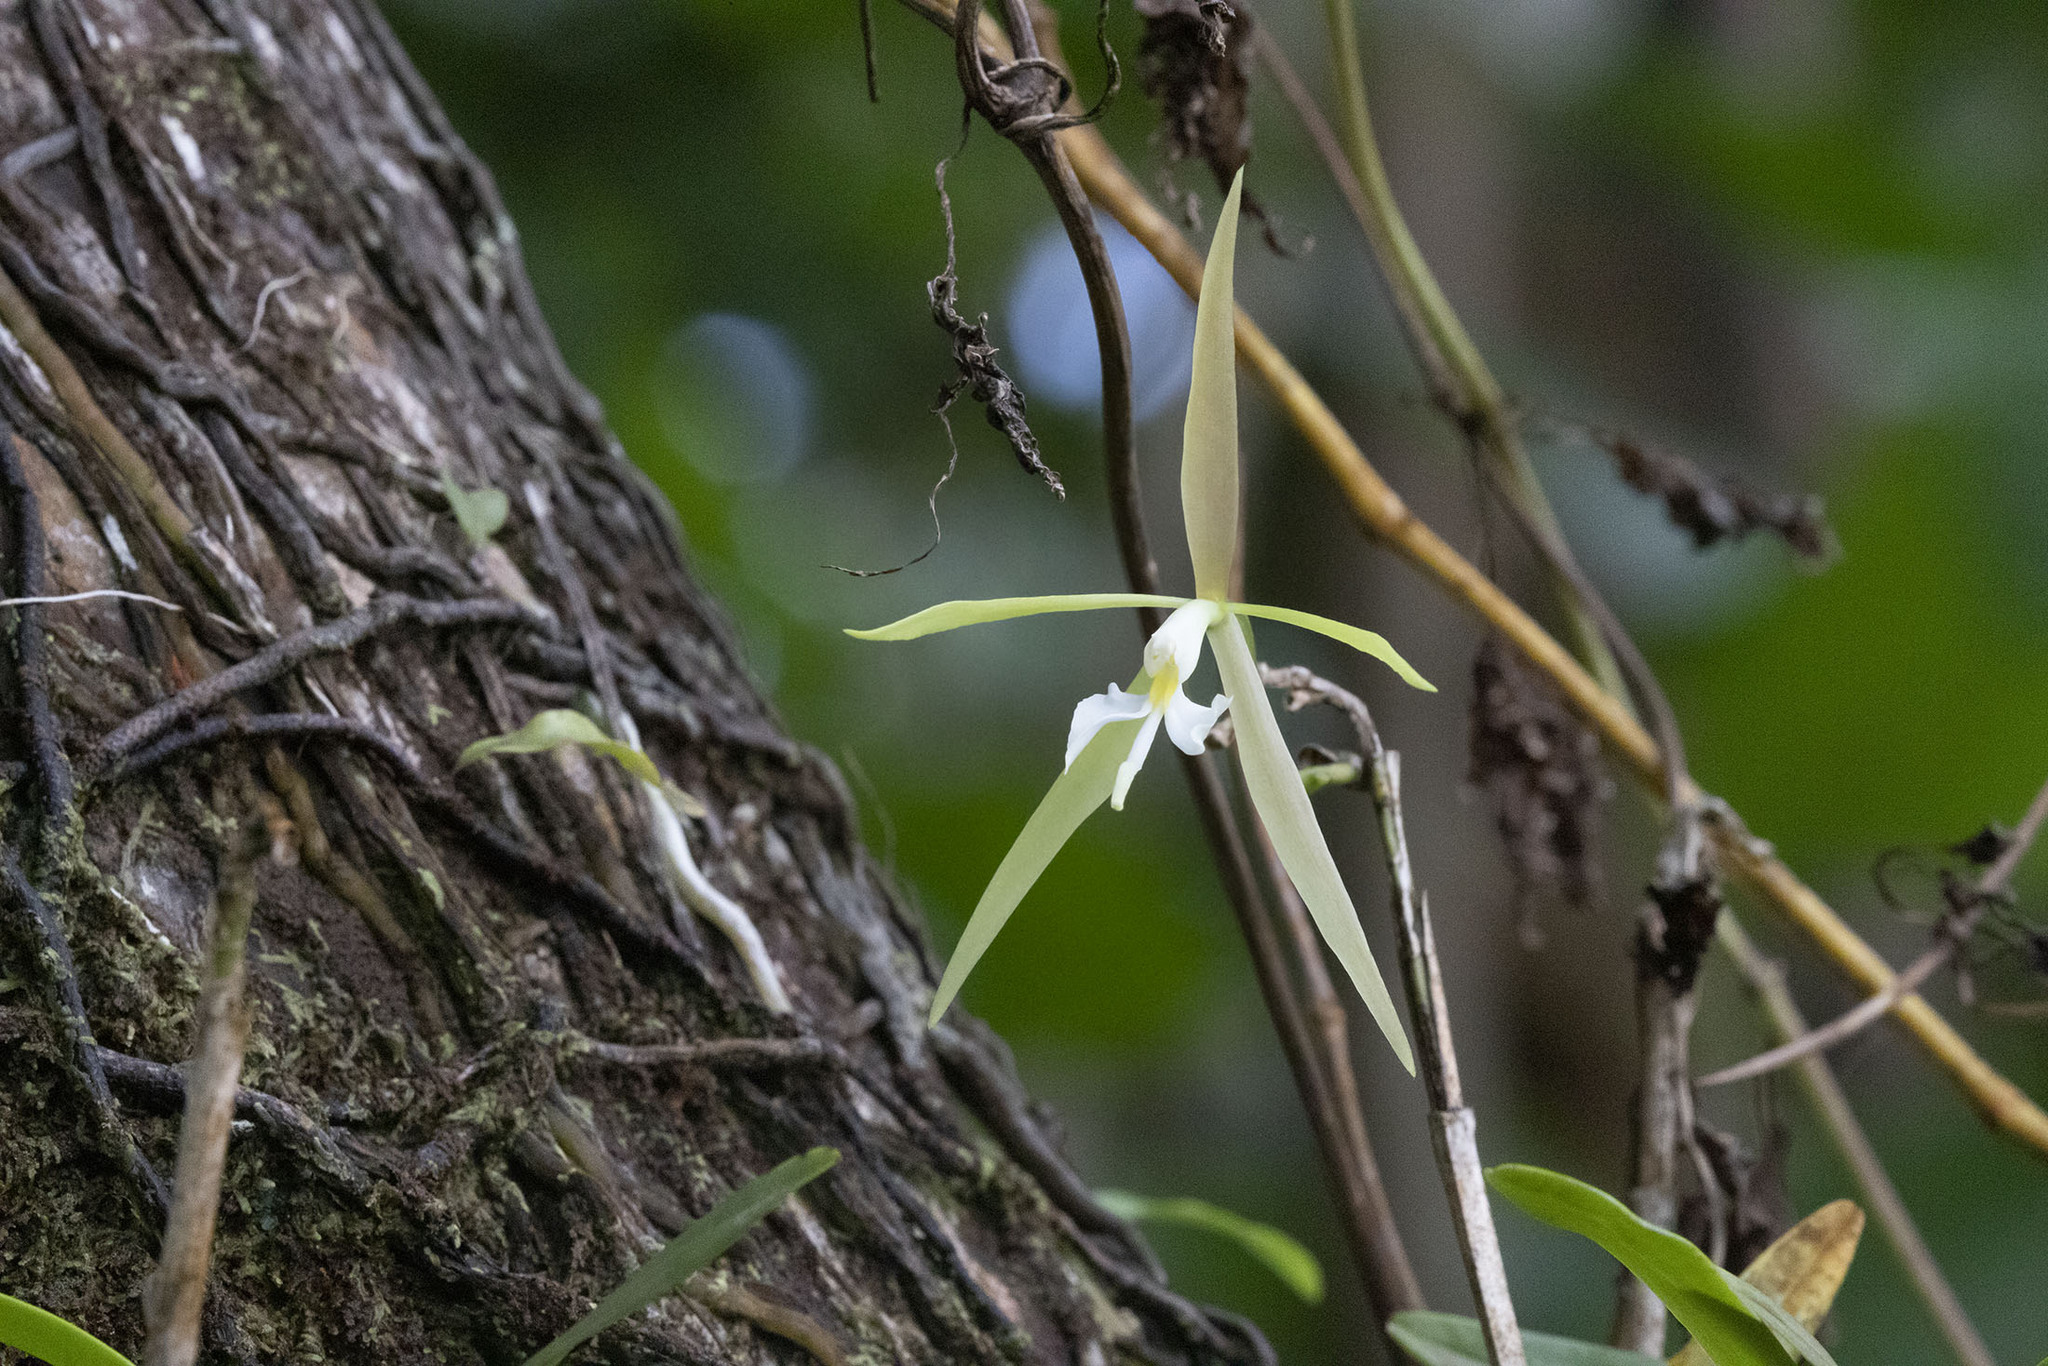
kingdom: Plantae
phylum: Tracheophyta
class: Liliopsida
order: Asparagales
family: Orchidaceae
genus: Epidendrum
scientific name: Epidendrum nocturnum
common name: Night scented orchid
